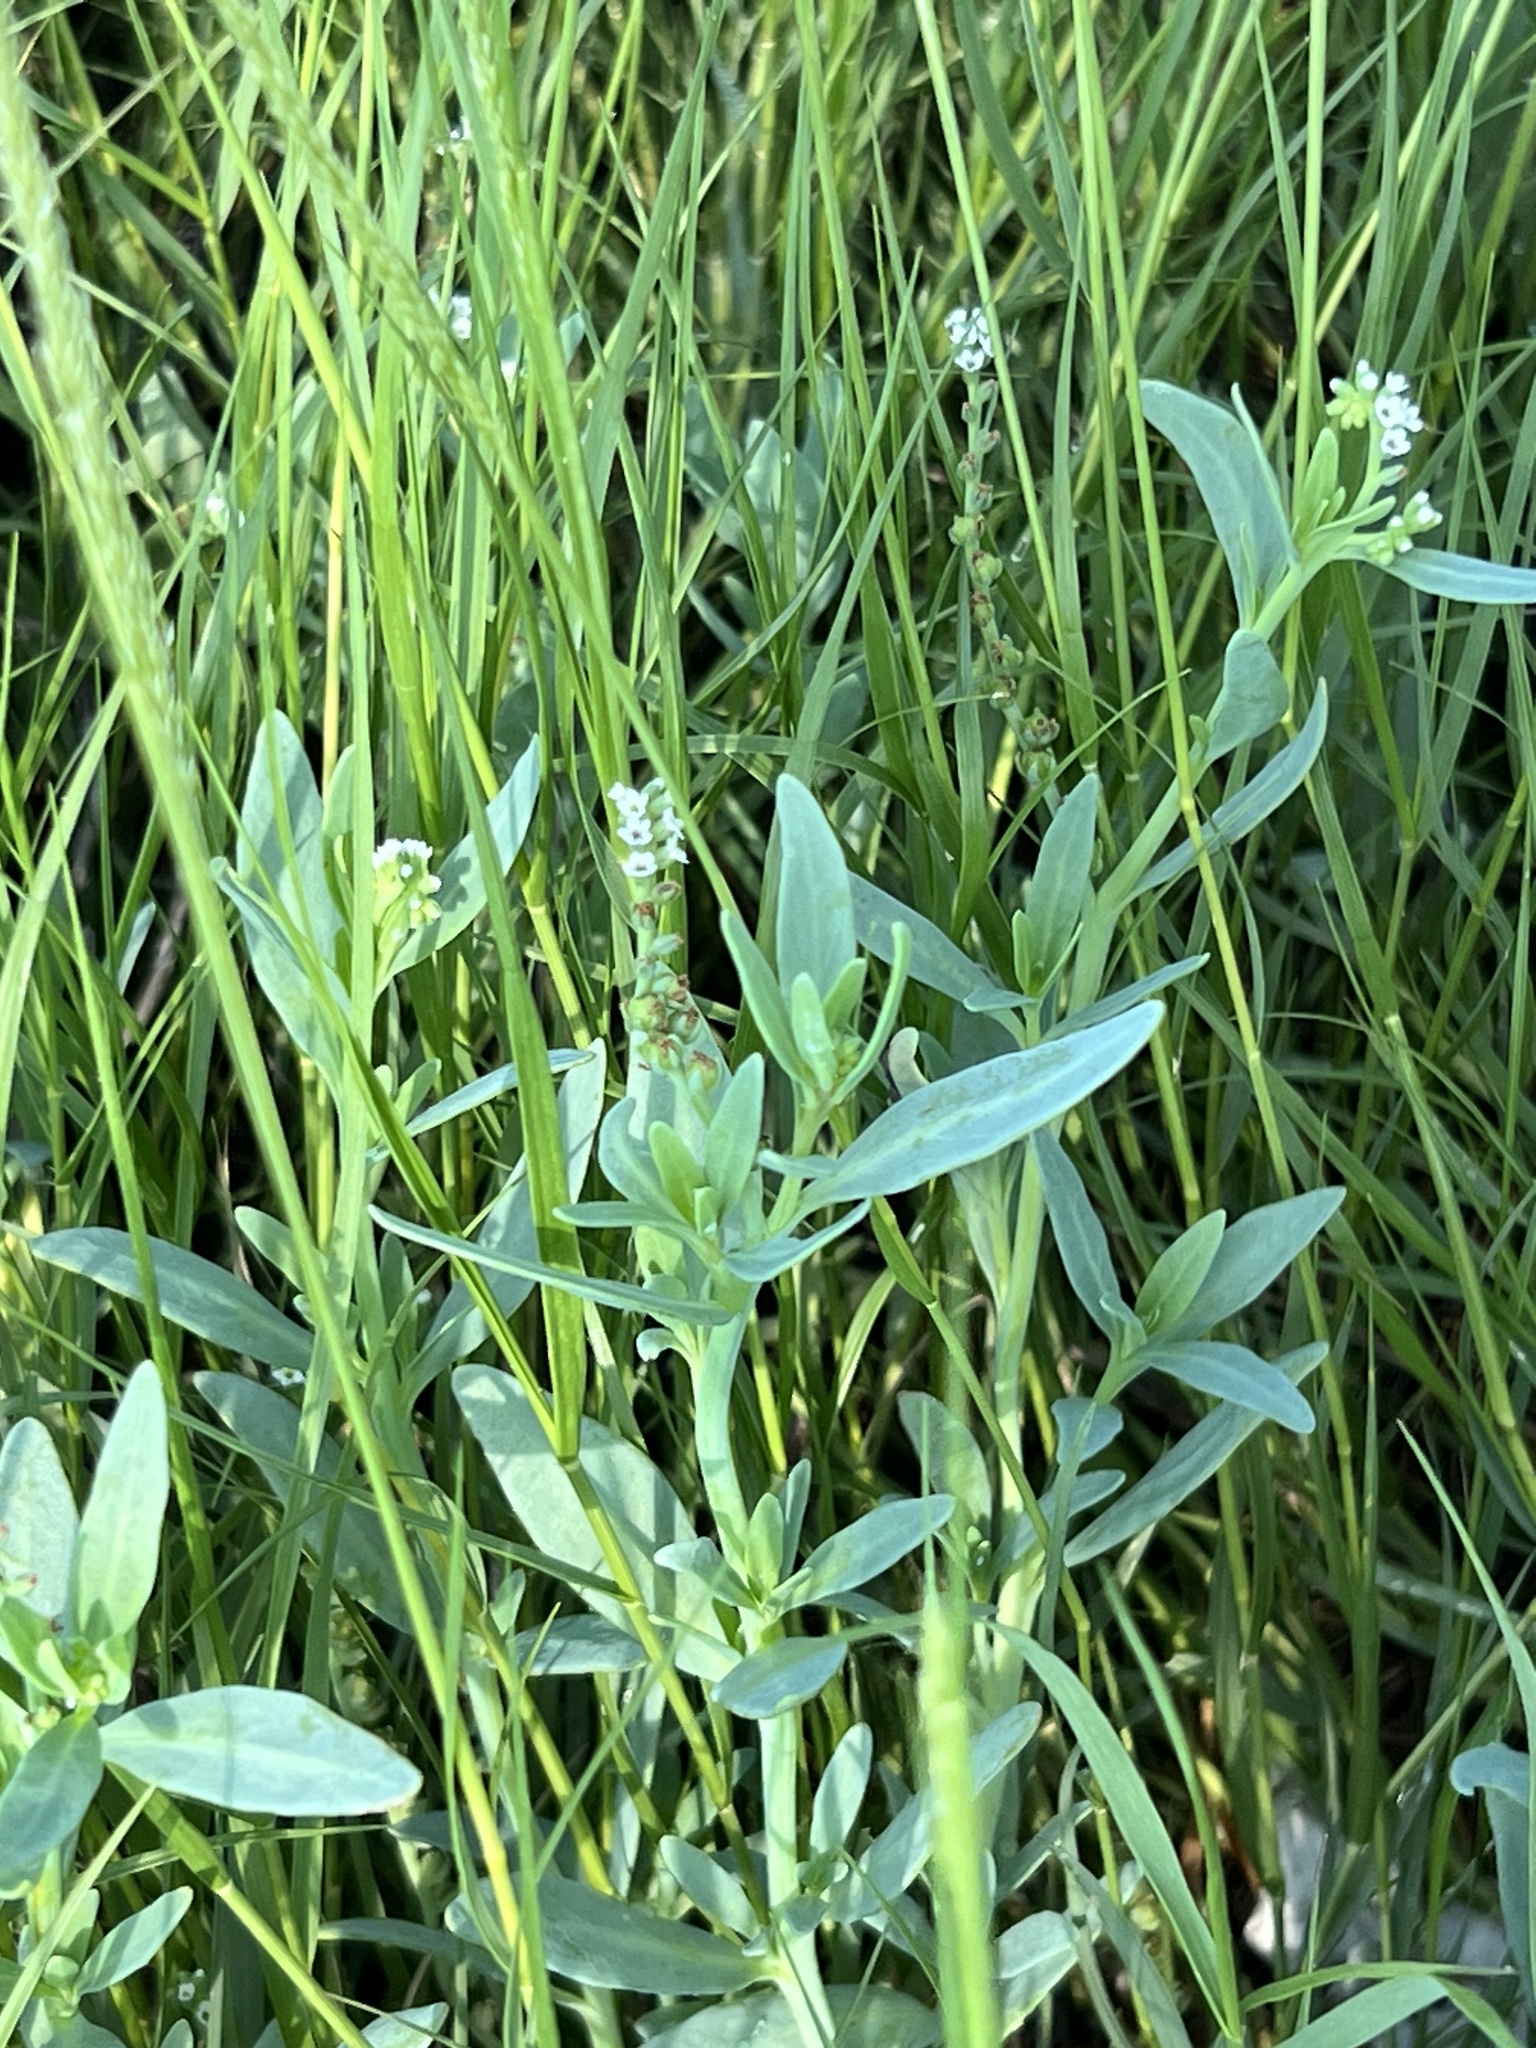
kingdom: Plantae
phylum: Tracheophyta
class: Magnoliopsida
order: Boraginales
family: Heliotropiaceae
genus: Heliotropium
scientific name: Heliotropium curassavicum
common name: Seaside heliotrope
